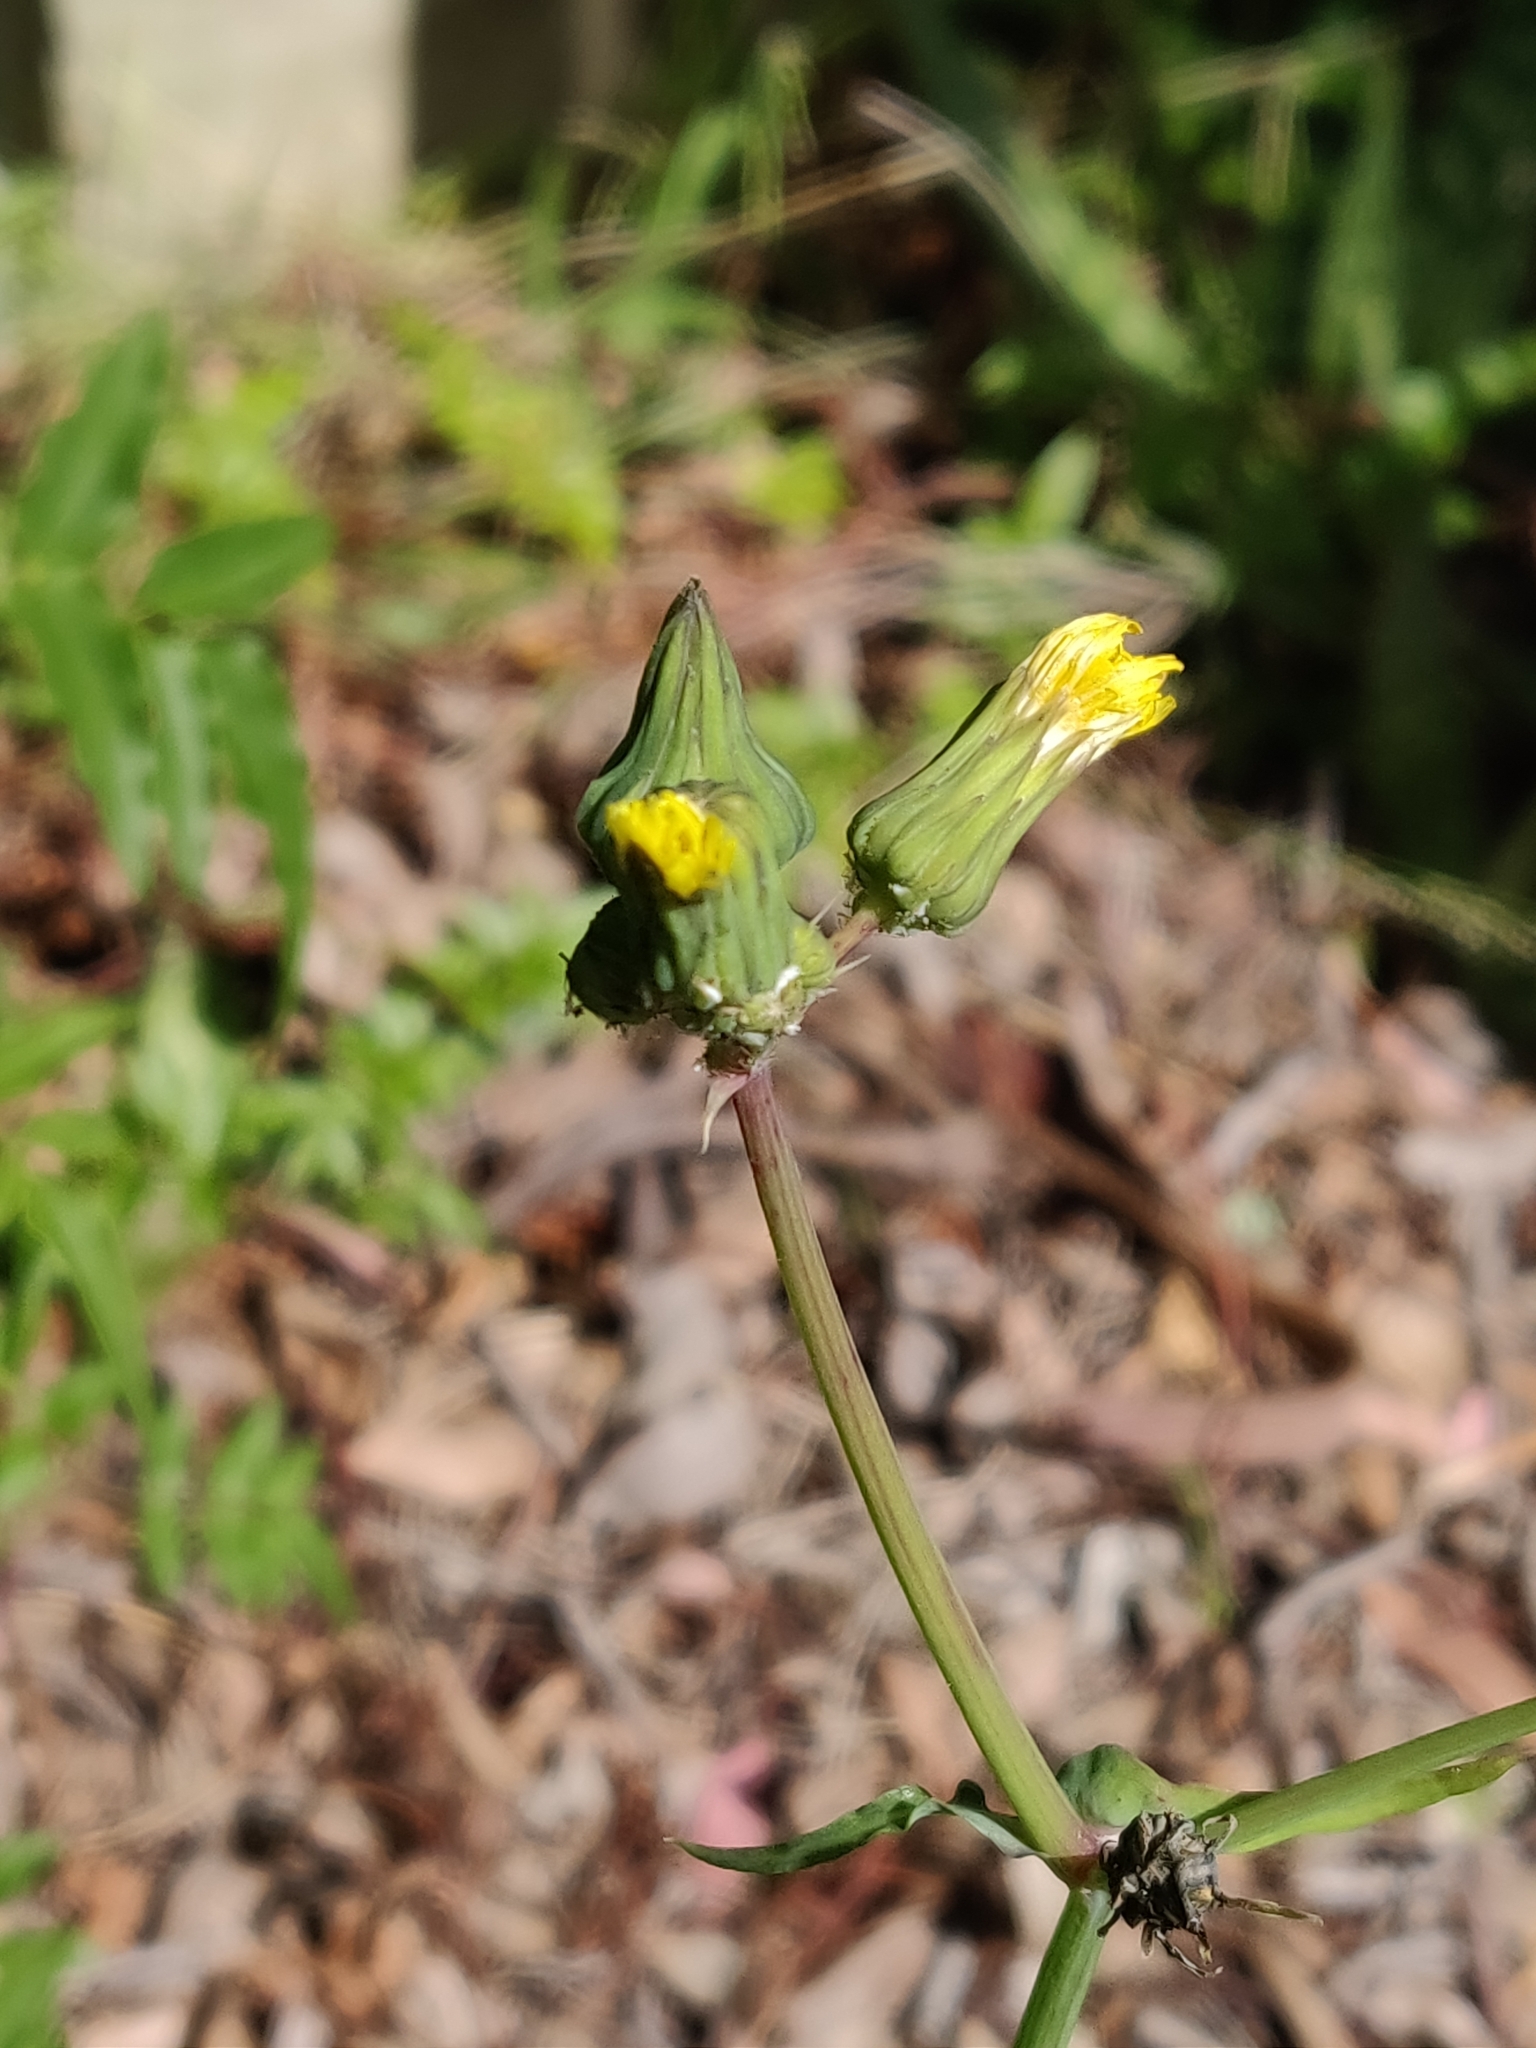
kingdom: Plantae
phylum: Tracheophyta
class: Magnoliopsida
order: Asterales
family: Asteraceae
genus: Sonchus
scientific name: Sonchus oleraceus
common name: Common sowthistle
